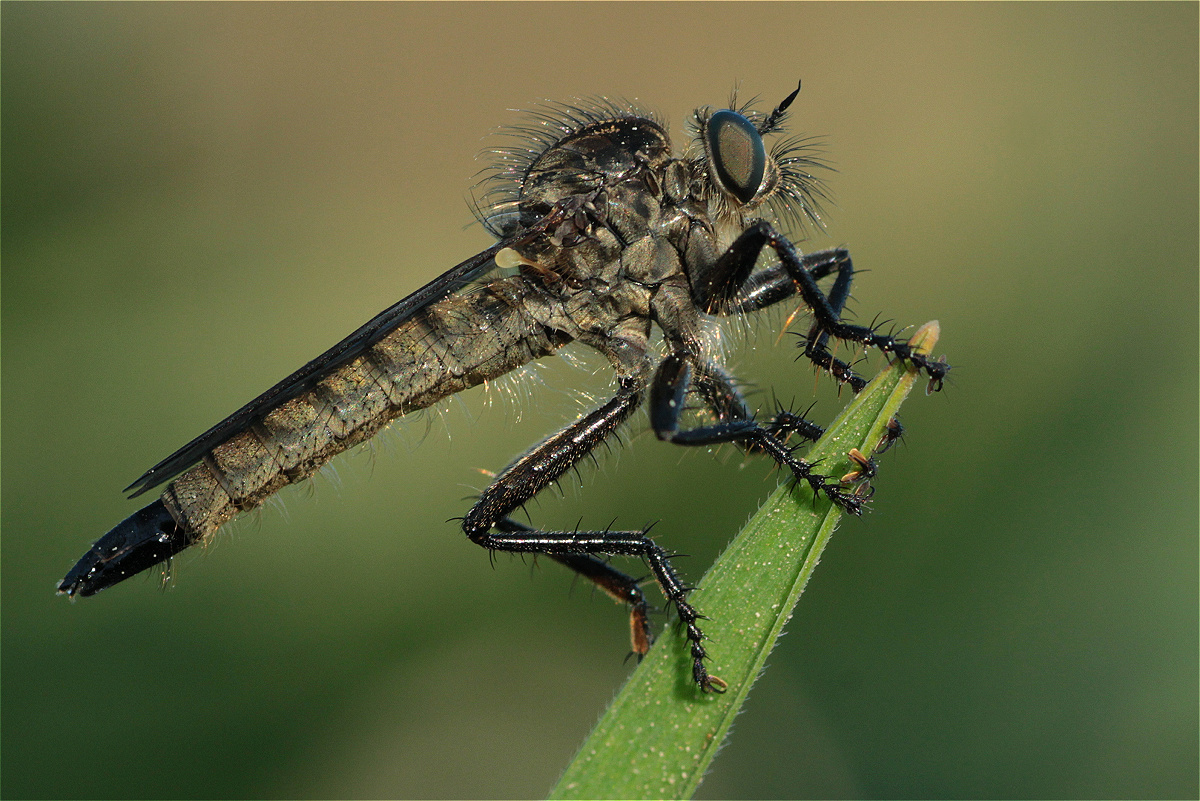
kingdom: Animalia
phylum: Arthropoda
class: Insecta
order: Diptera
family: Asilidae
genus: Didysmachus
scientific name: Didysmachus picipes
